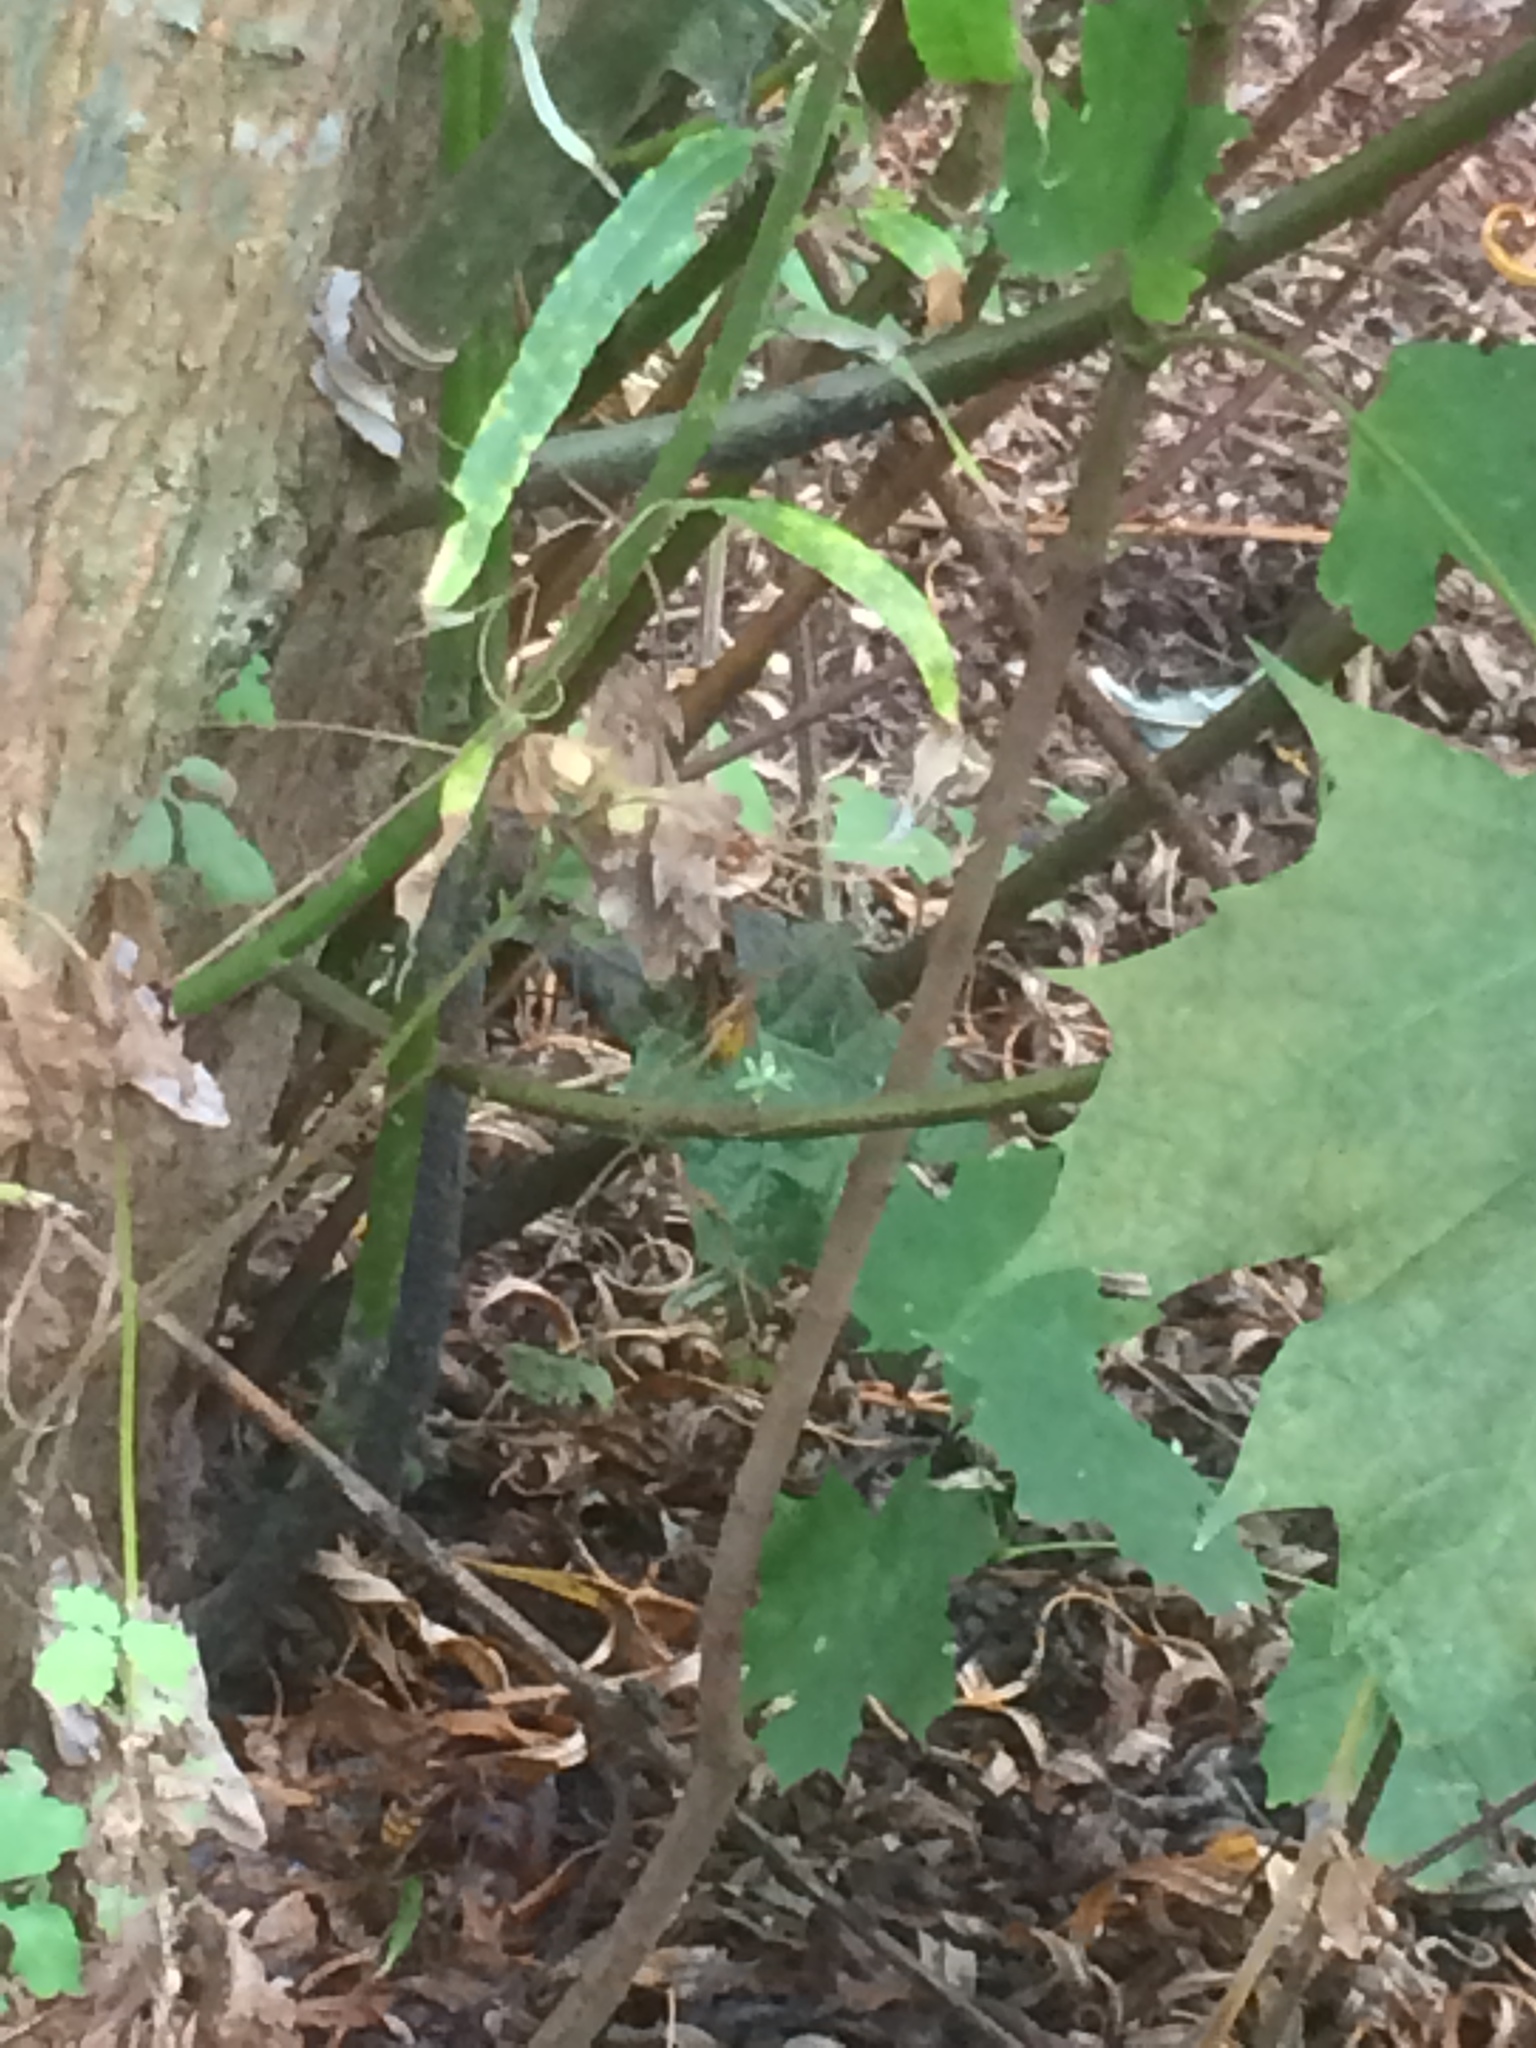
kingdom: Animalia
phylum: Arthropoda
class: Insecta
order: Hymenoptera
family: Vespidae
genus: Vespa
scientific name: Vespa crabro
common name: Hornet
